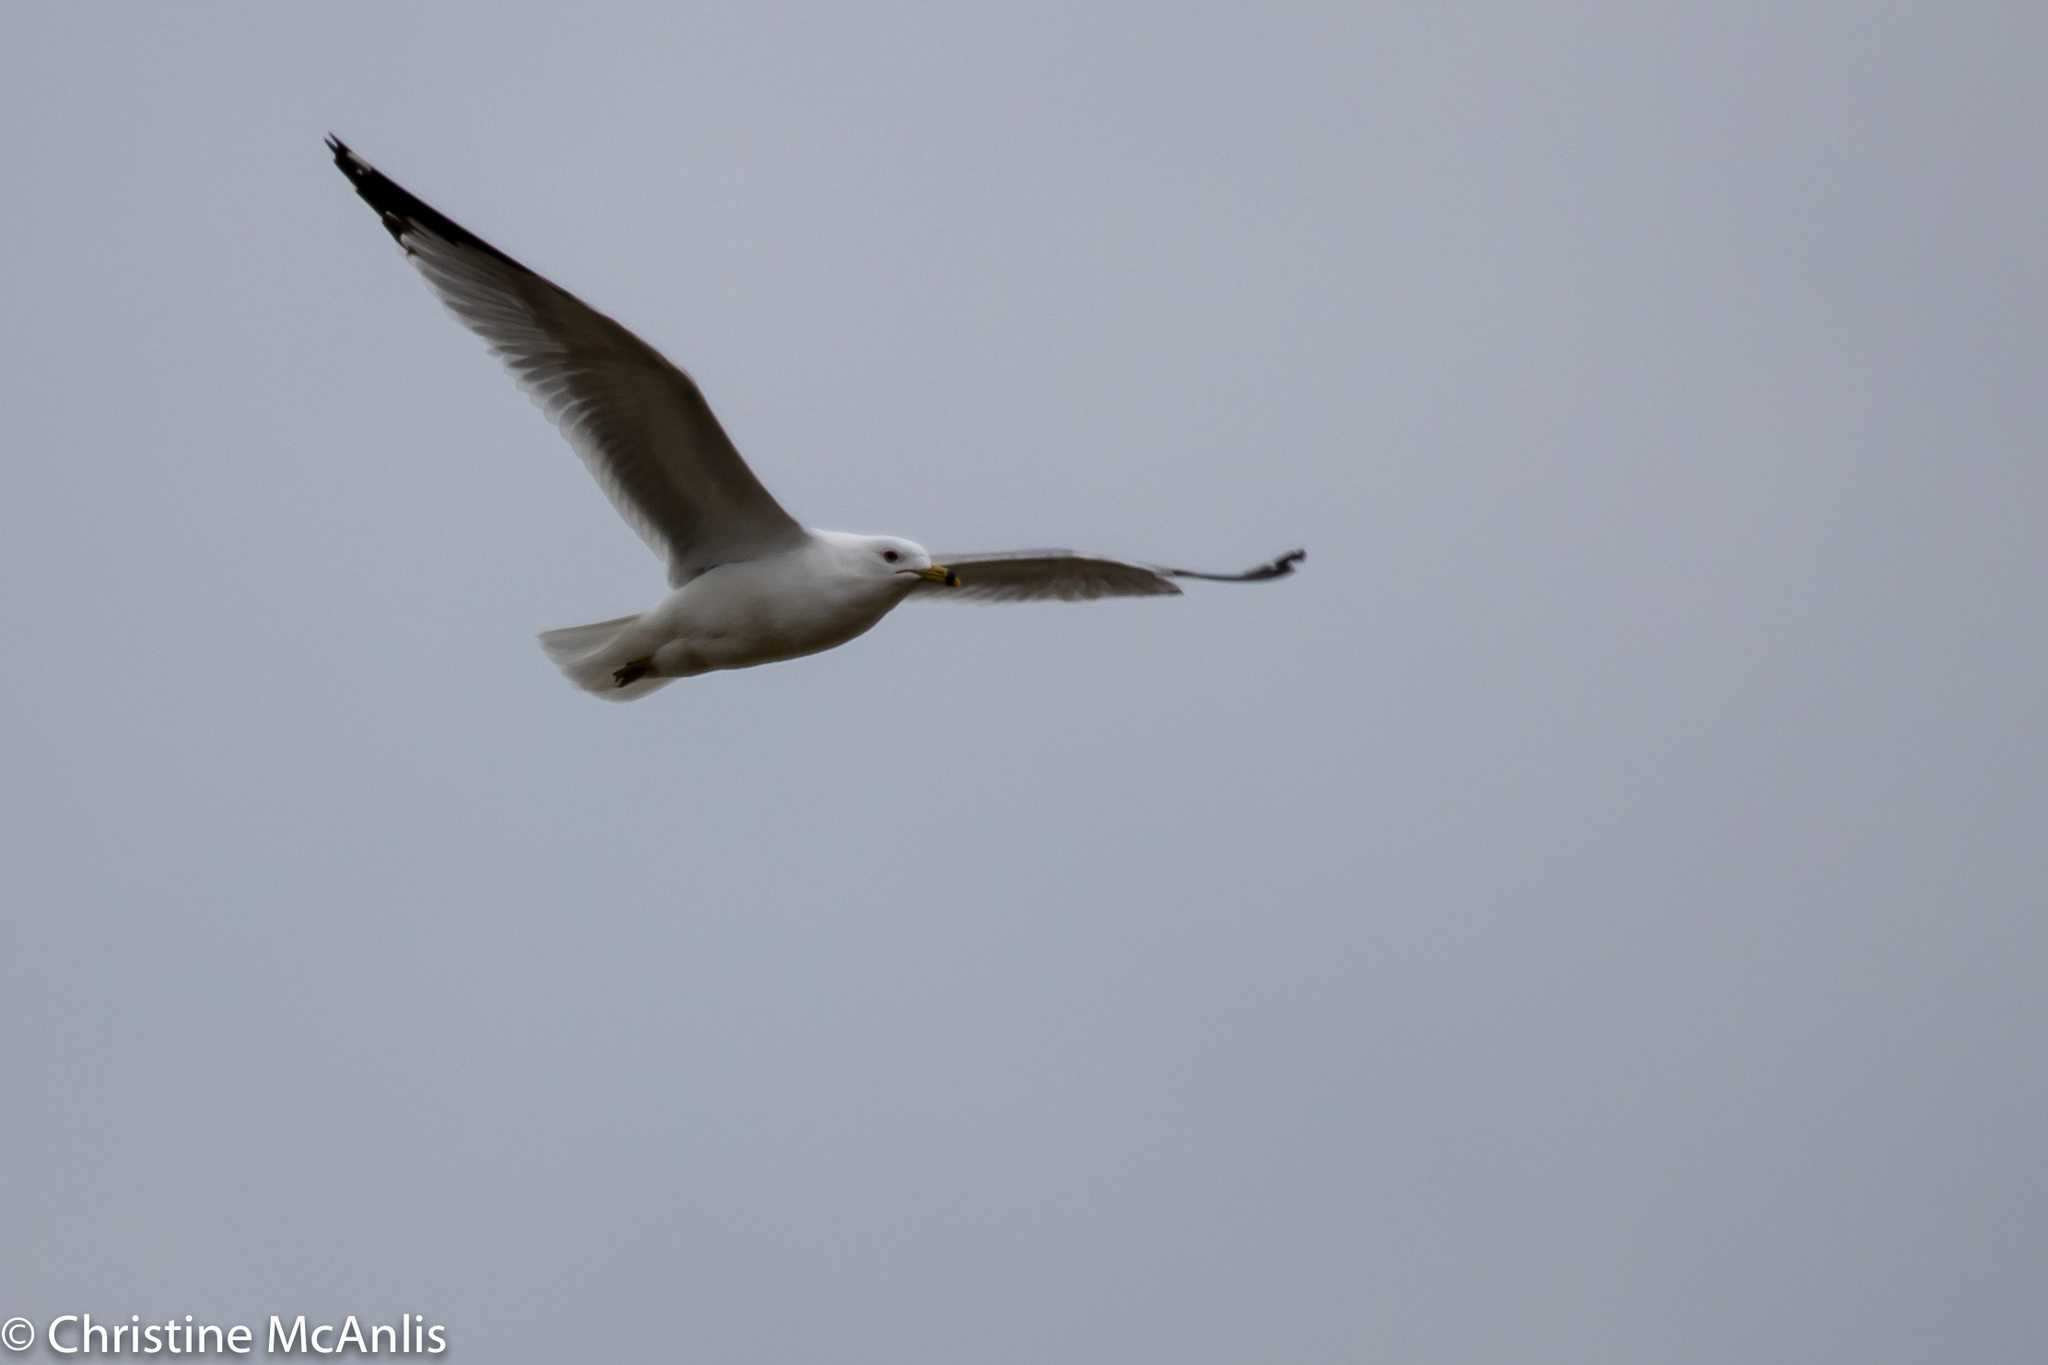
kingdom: Animalia
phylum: Chordata
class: Aves
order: Charadriiformes
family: Laridae
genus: Larus
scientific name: Larus delawarensis
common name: Ring-billed gull
